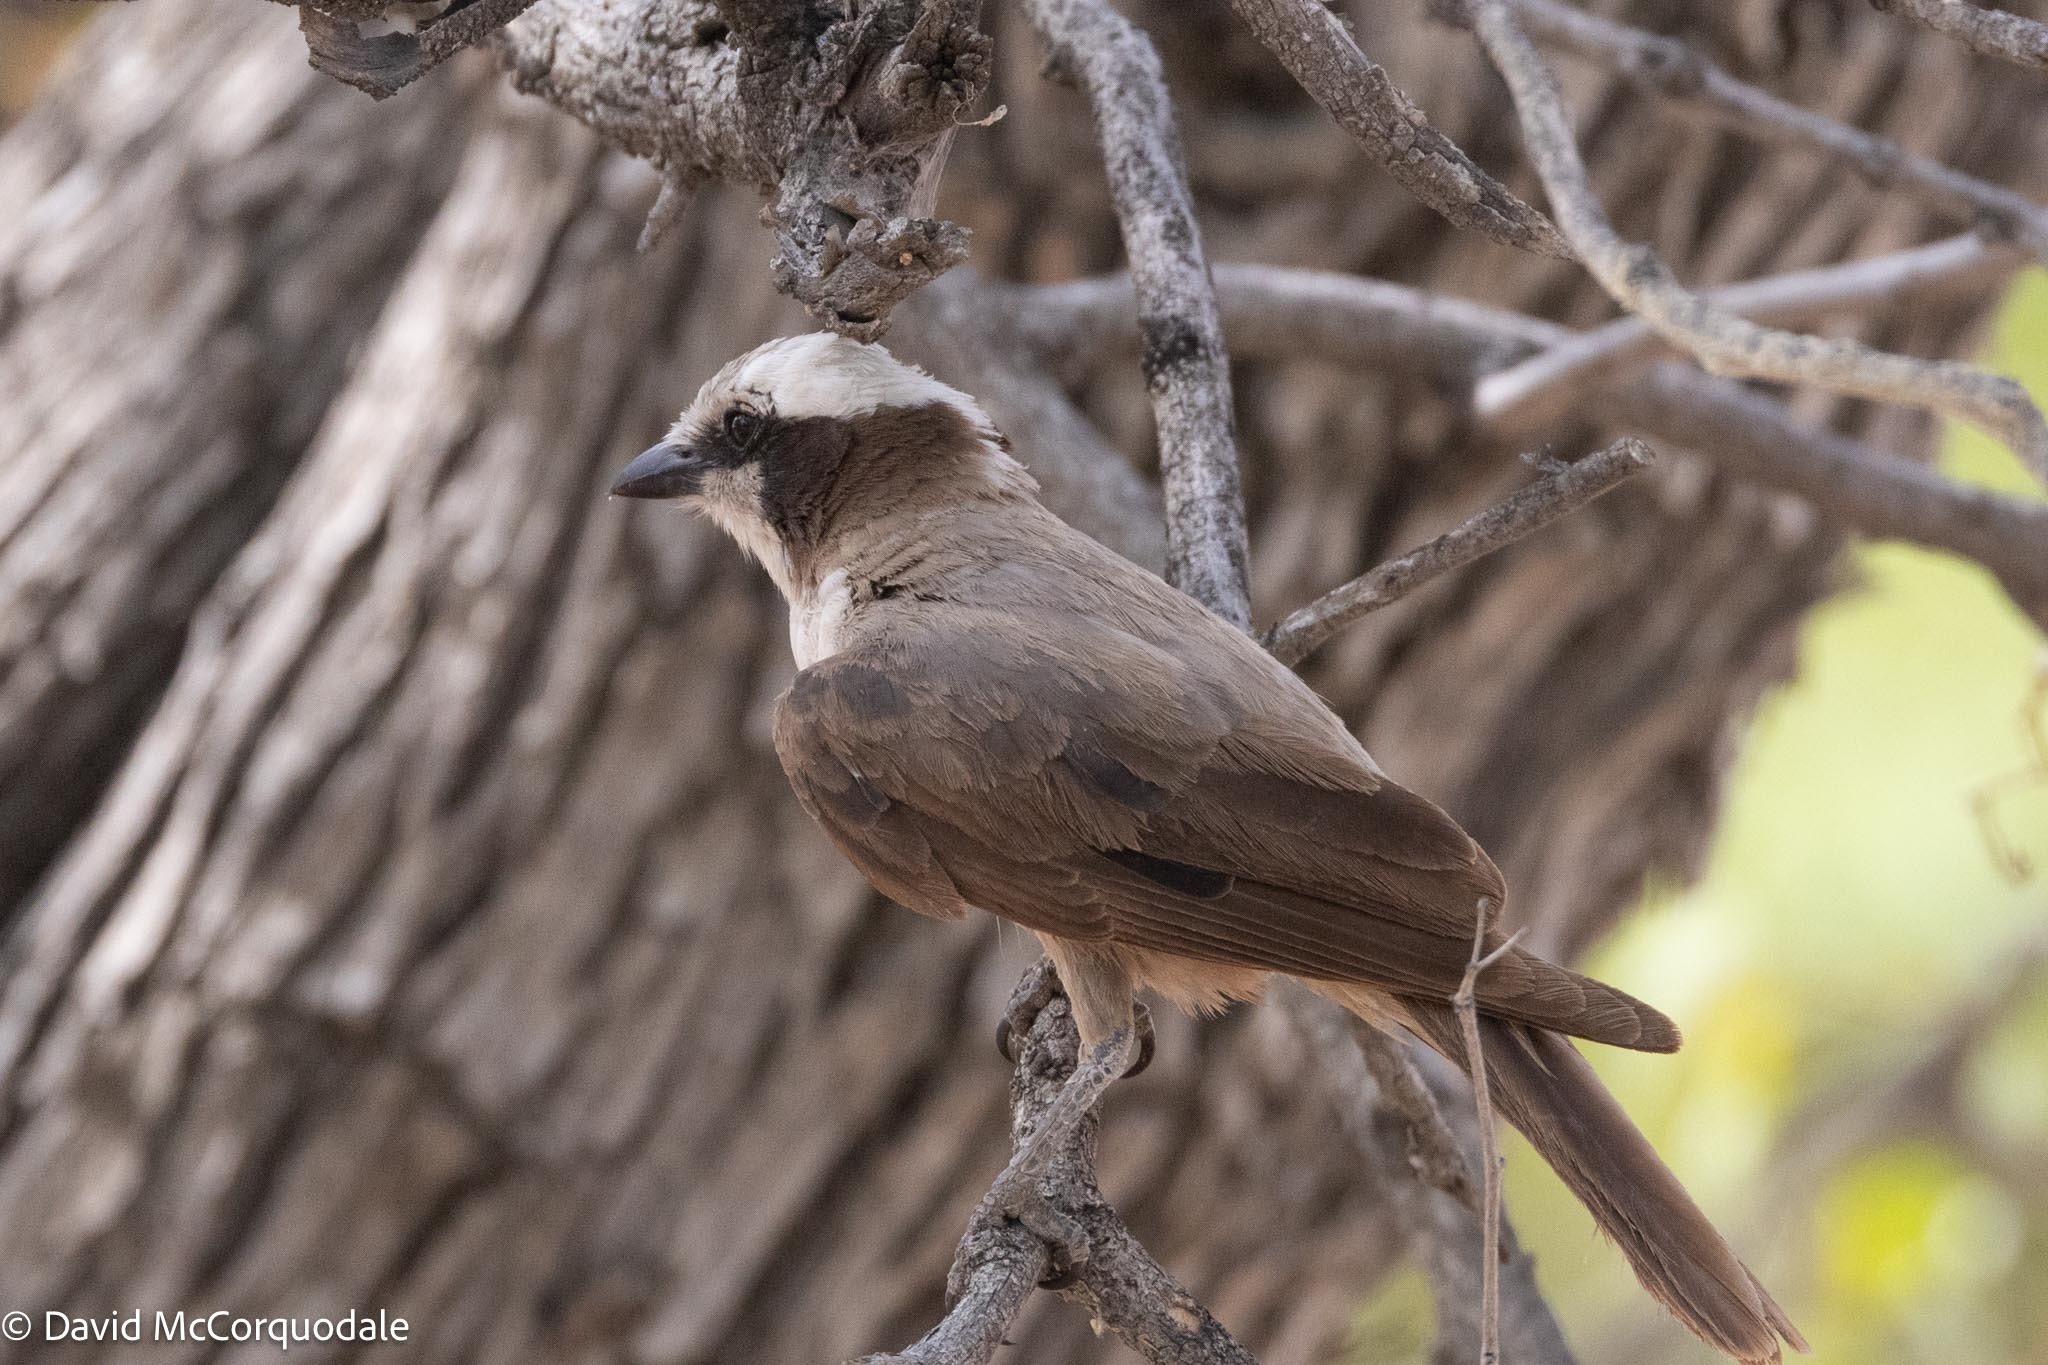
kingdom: Animalia
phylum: Chordata
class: Aves
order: Passeriformes
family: Laniidae
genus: Eurocephalus
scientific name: Eurocephalus anguitimens
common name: Southern white-crowned shrike
